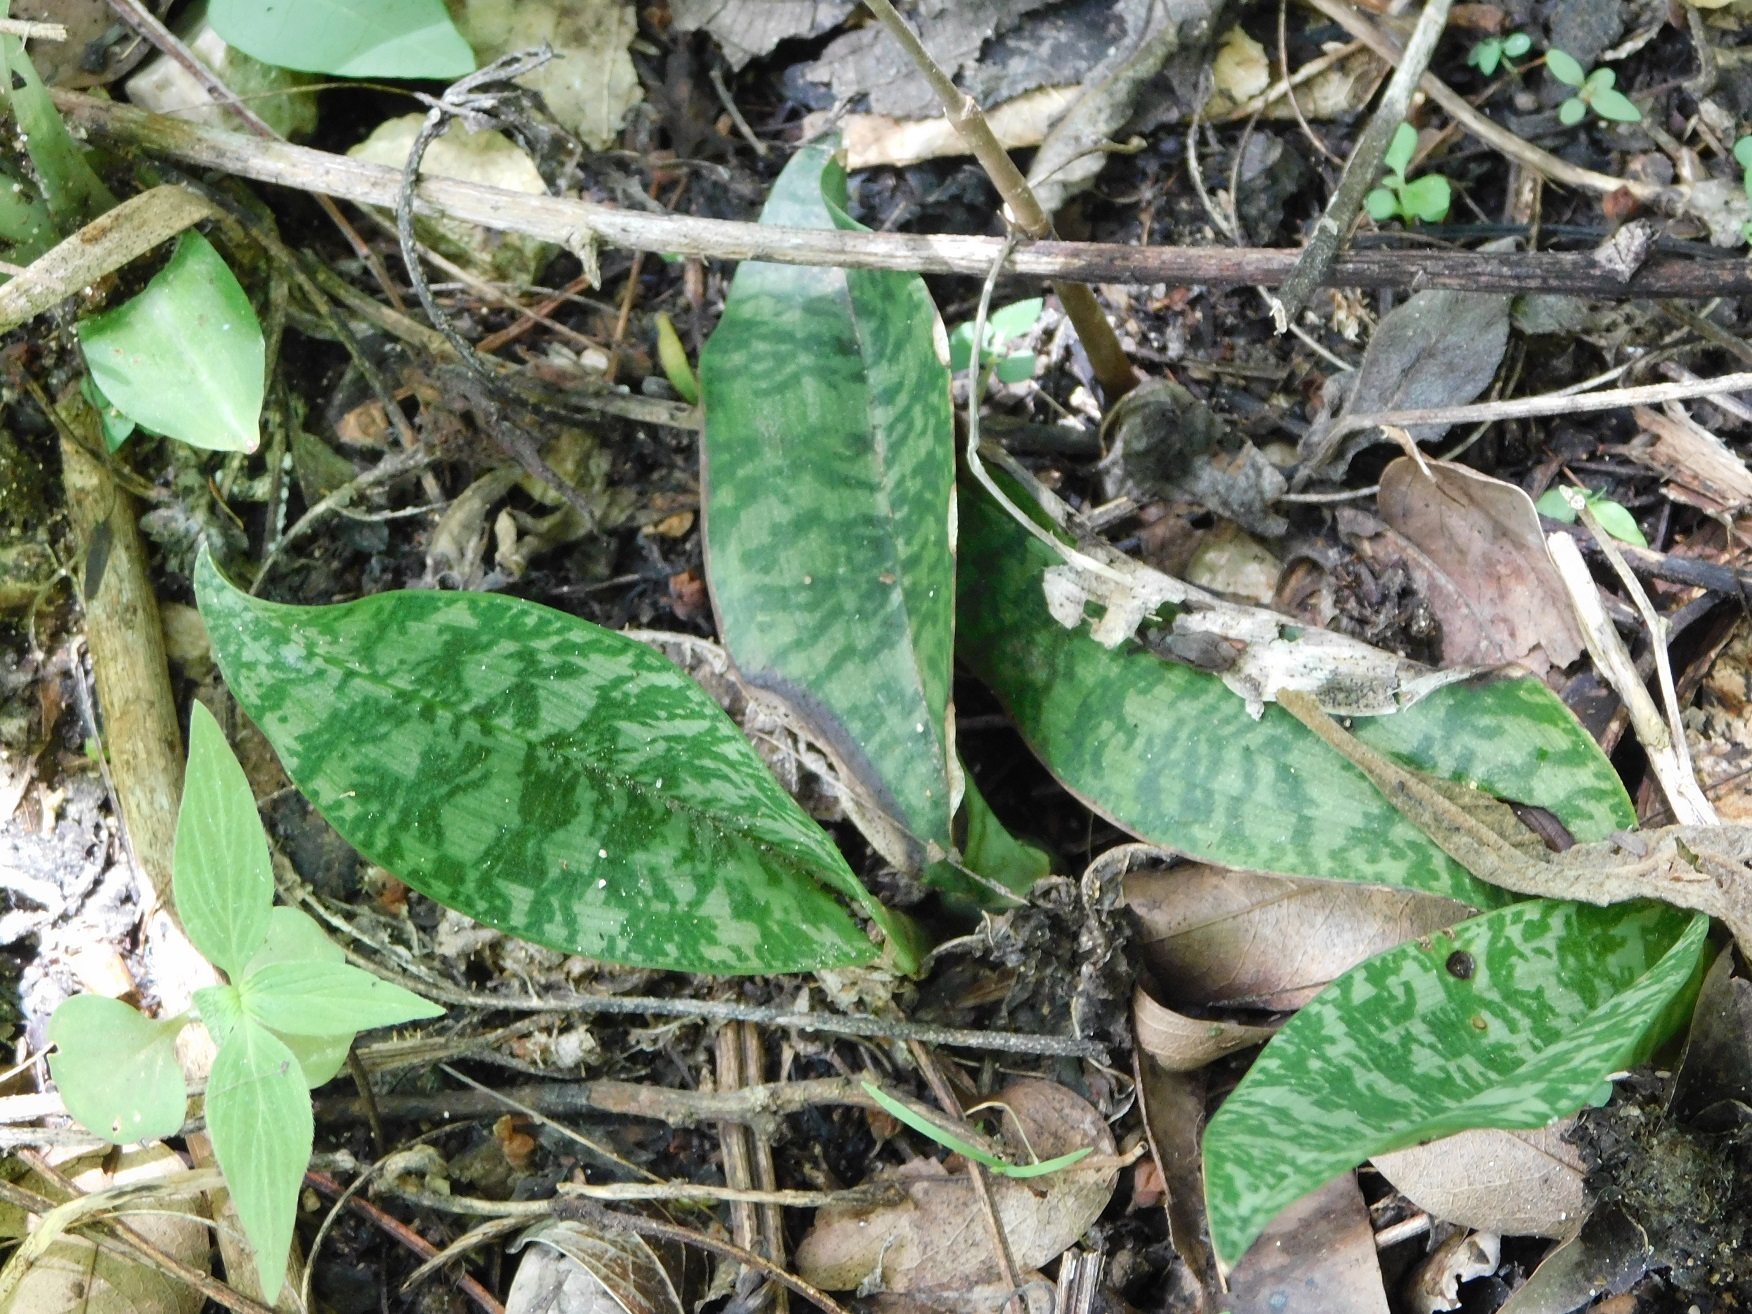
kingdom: Plantae
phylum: Tracheophyta
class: Liliopsida
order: Asparagales
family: Orchidaceae
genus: Eulophia
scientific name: Eulophia maculata
